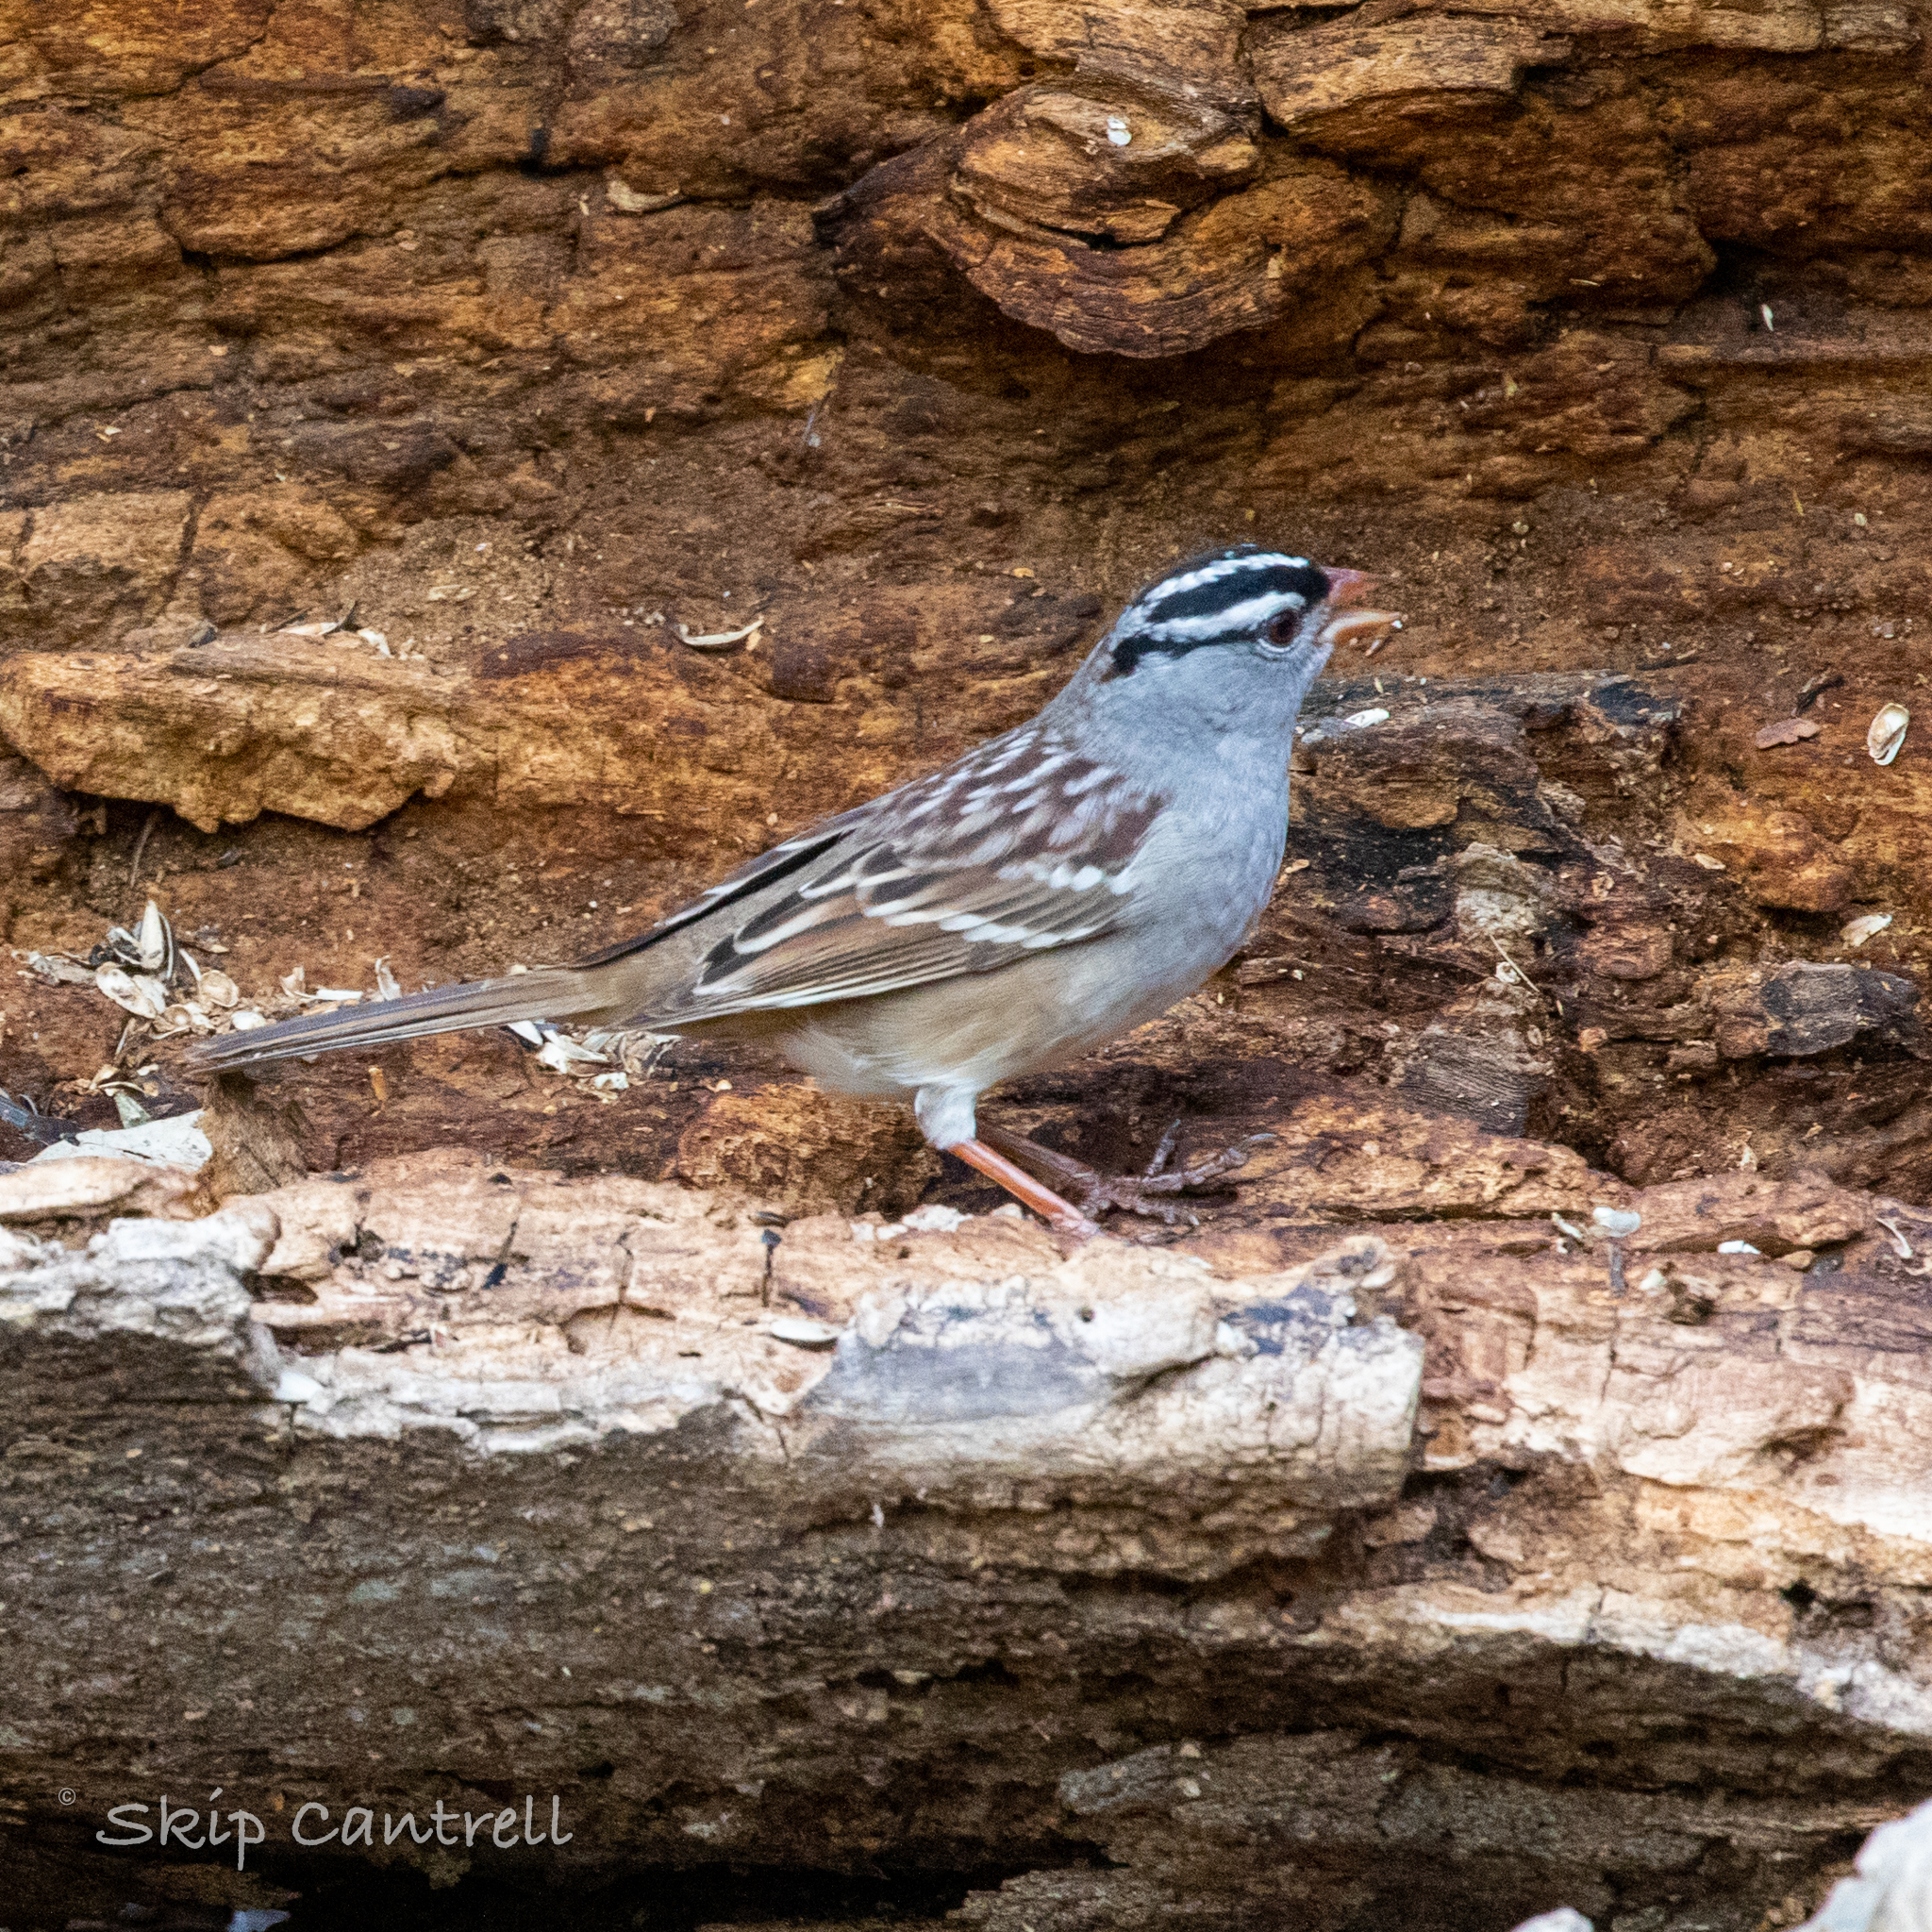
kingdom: Animalia
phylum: Chordata
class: Aves
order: Passeriformes
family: Passerellidae
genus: Zonotrichia
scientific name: Zonotrichia leucophrys
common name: White-crowned sparrow
